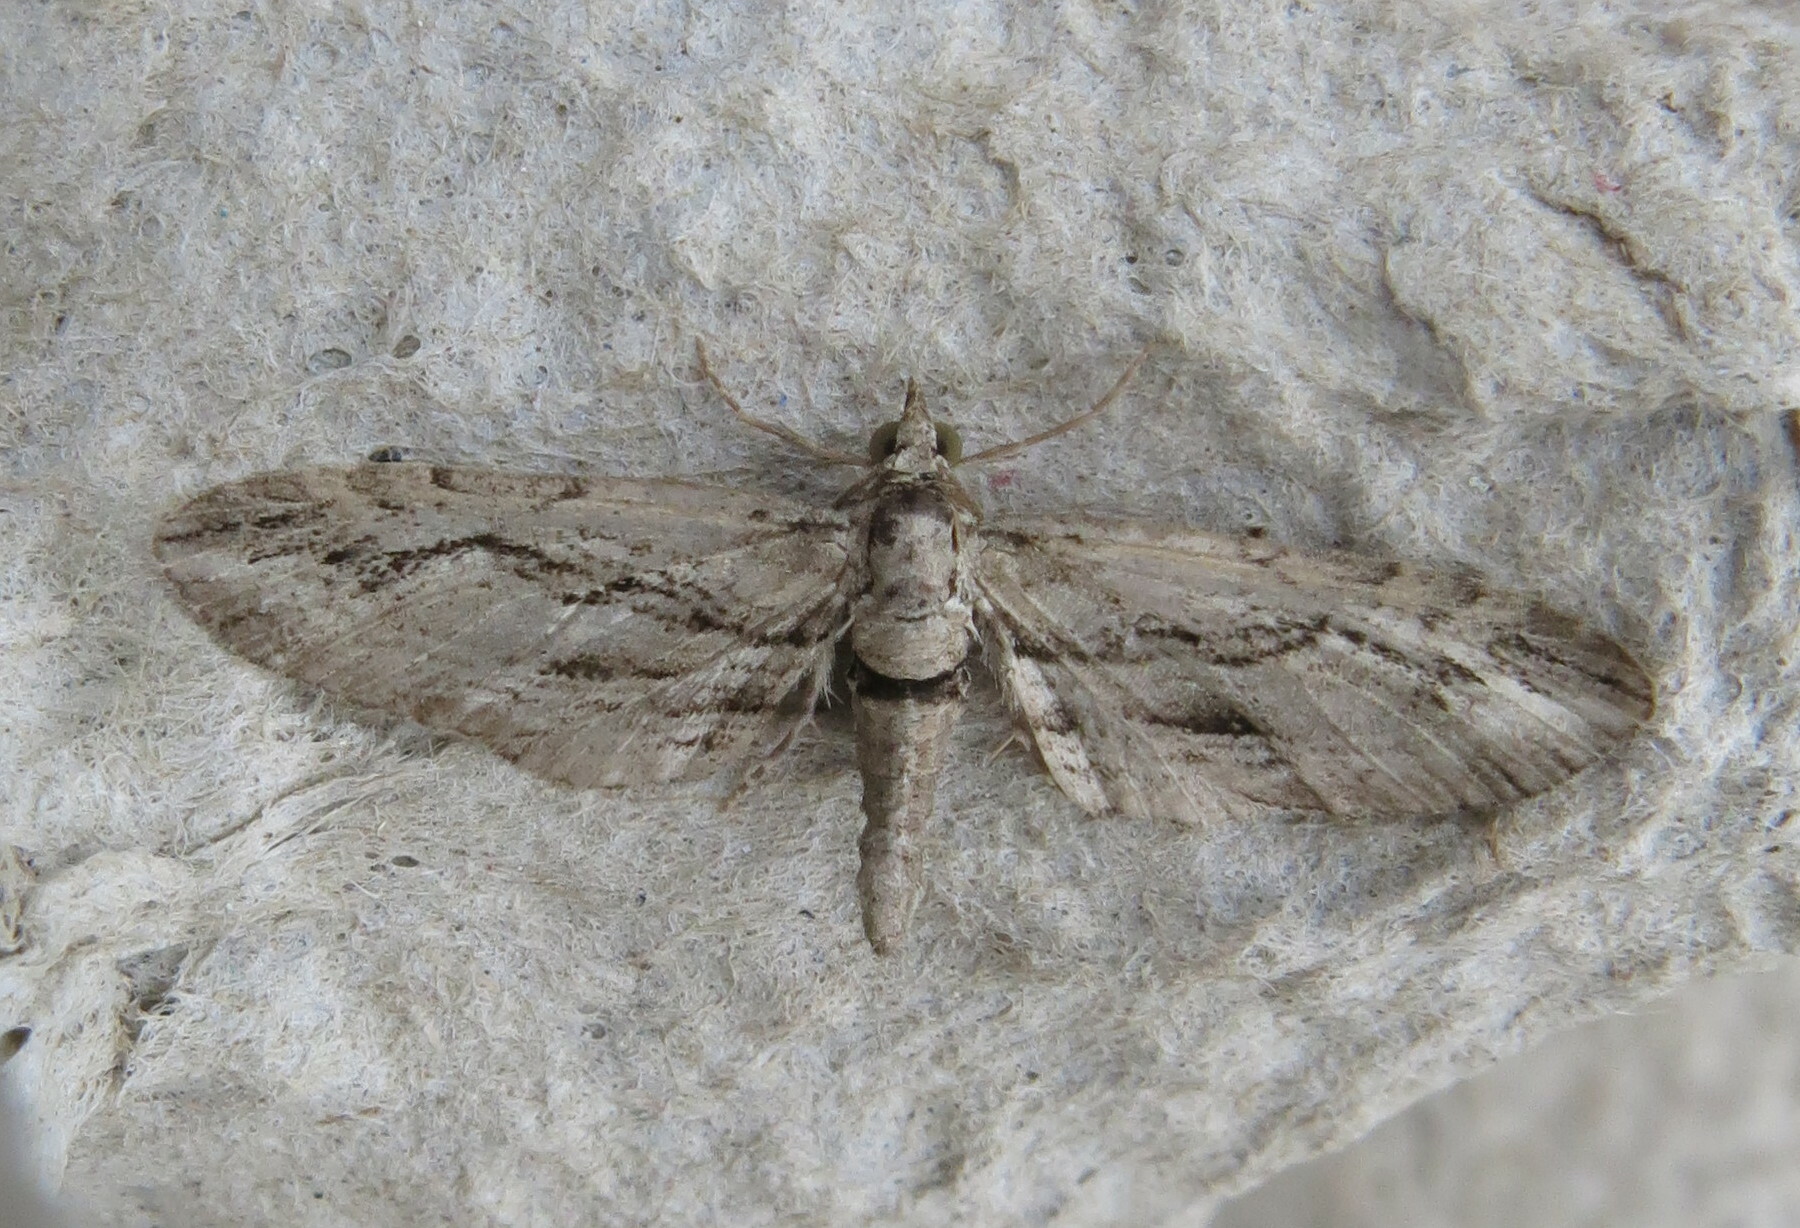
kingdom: Animalia
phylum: Arthropoda
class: Insecta
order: Lepidoptera
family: Geometridae
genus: Eupithecia
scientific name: Eupithecia phoeniceata
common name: Cypress pug
